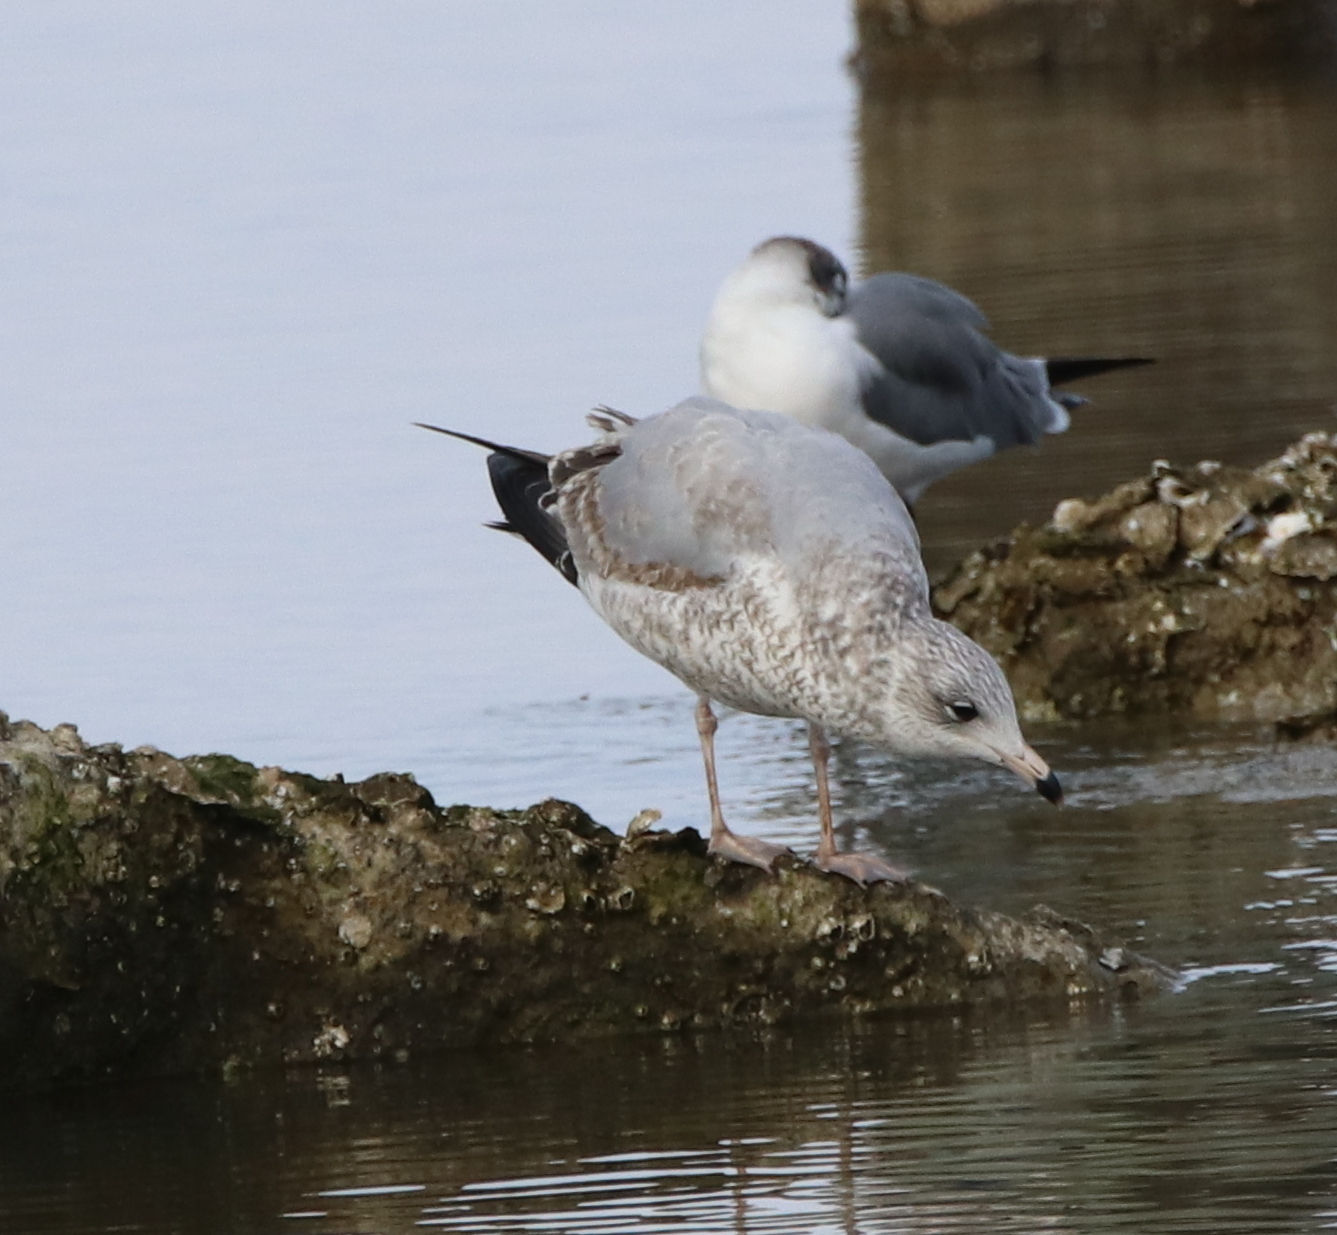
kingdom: Animalia
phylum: Chordata
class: Aves
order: Charadriiformes
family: Laridae
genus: Larus
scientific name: Larus delawarensis
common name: Ring-billed gull
